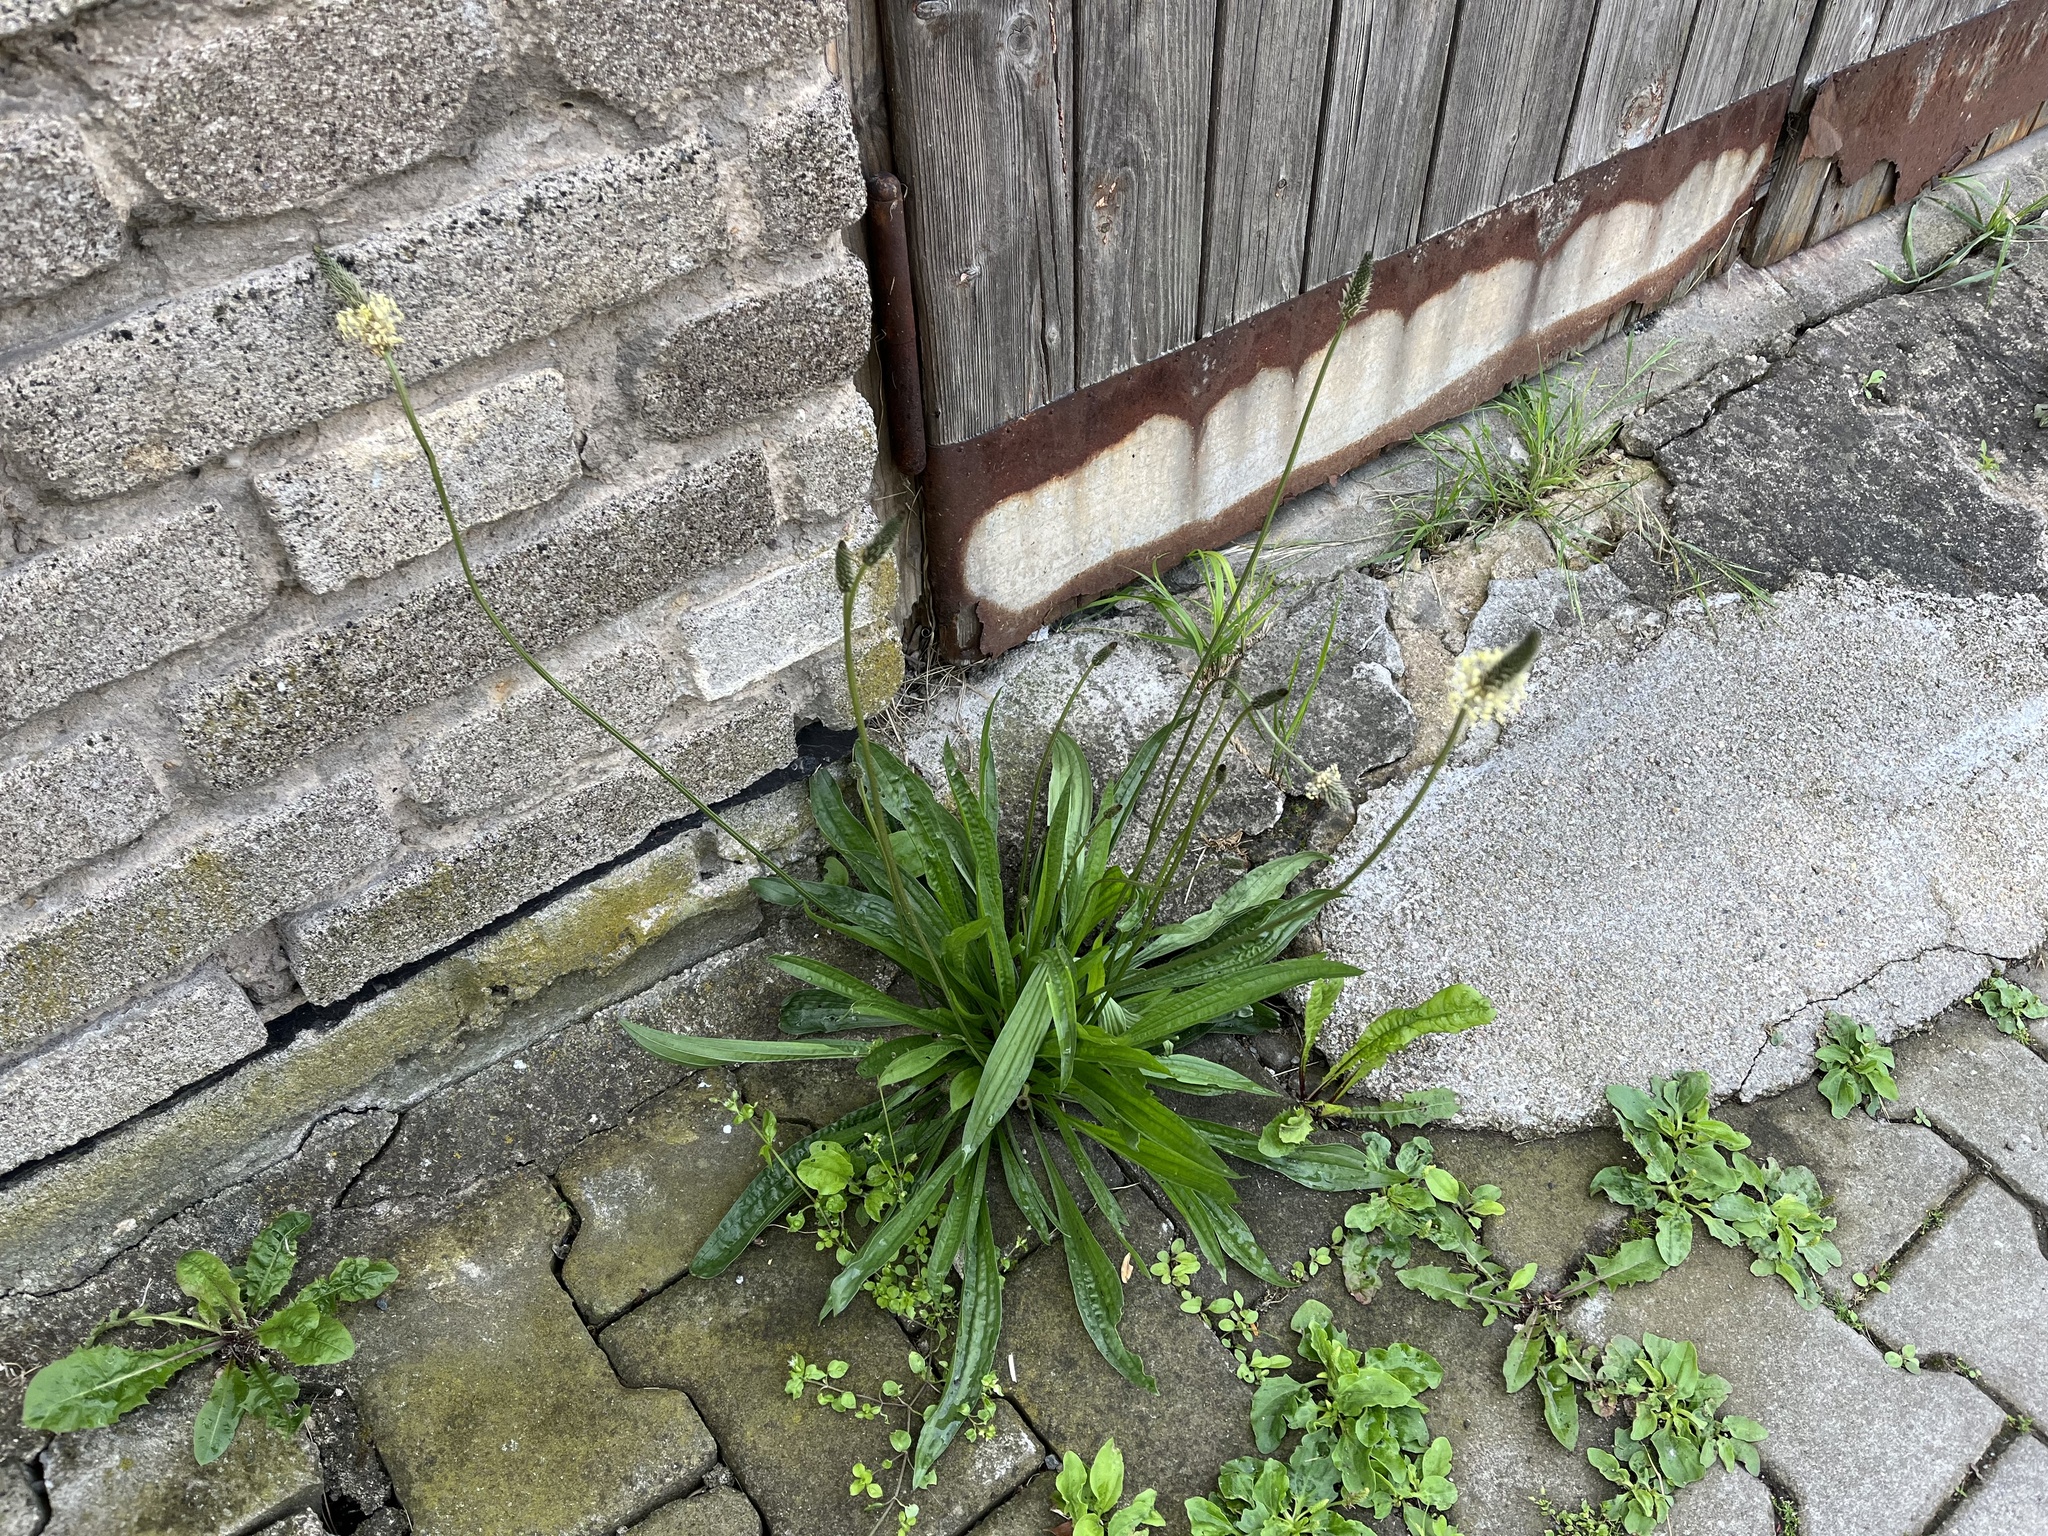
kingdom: Plantae
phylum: Tracheophyta
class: Magnoliopsida
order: Lamiales
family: Plantaginaceae
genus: Plantago
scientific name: Plantago lanceolata
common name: Ribwort plantain
